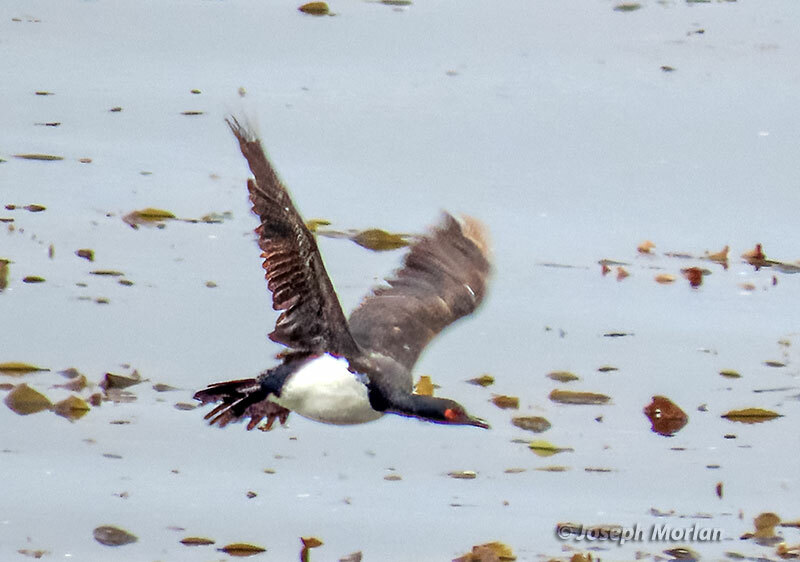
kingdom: Animalia
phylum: Chordata
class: Aves
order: Suliformes
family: Phalacrocoracidae
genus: Phalacrocorax
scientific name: Phalacrocorax magellanicus
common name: Rock shag
